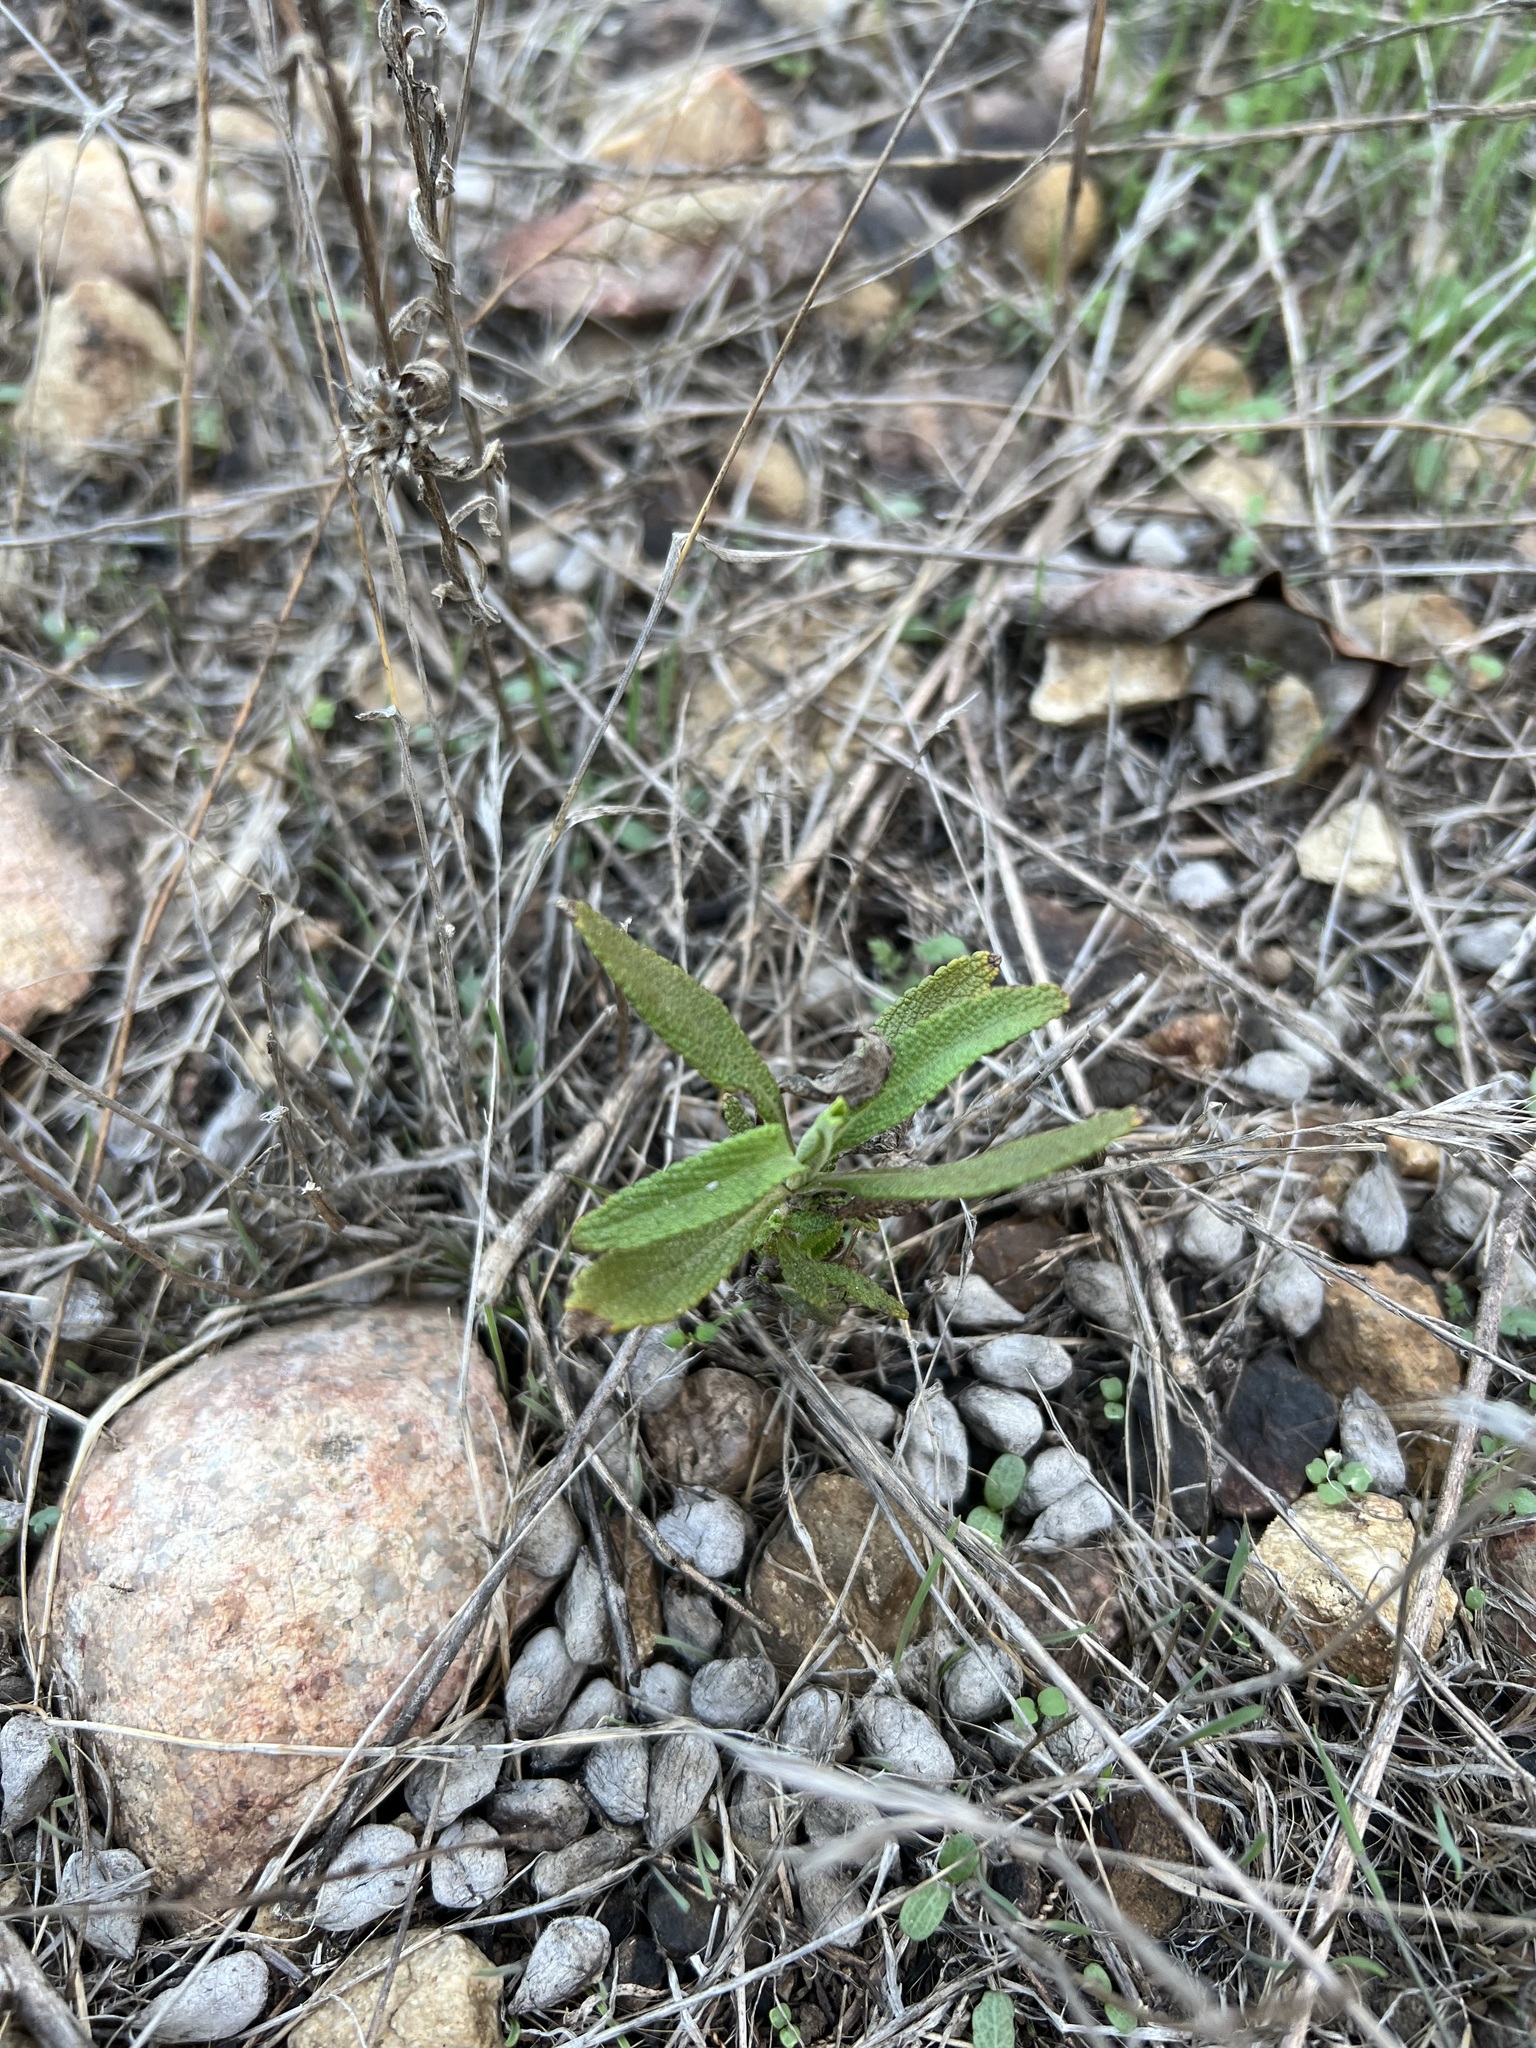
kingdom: Plantae
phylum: Tracheophyta
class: Magnoliopsida
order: Lamiales
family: Lamiaceae
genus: Salvia
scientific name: Salvia mellifera
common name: Black sage
